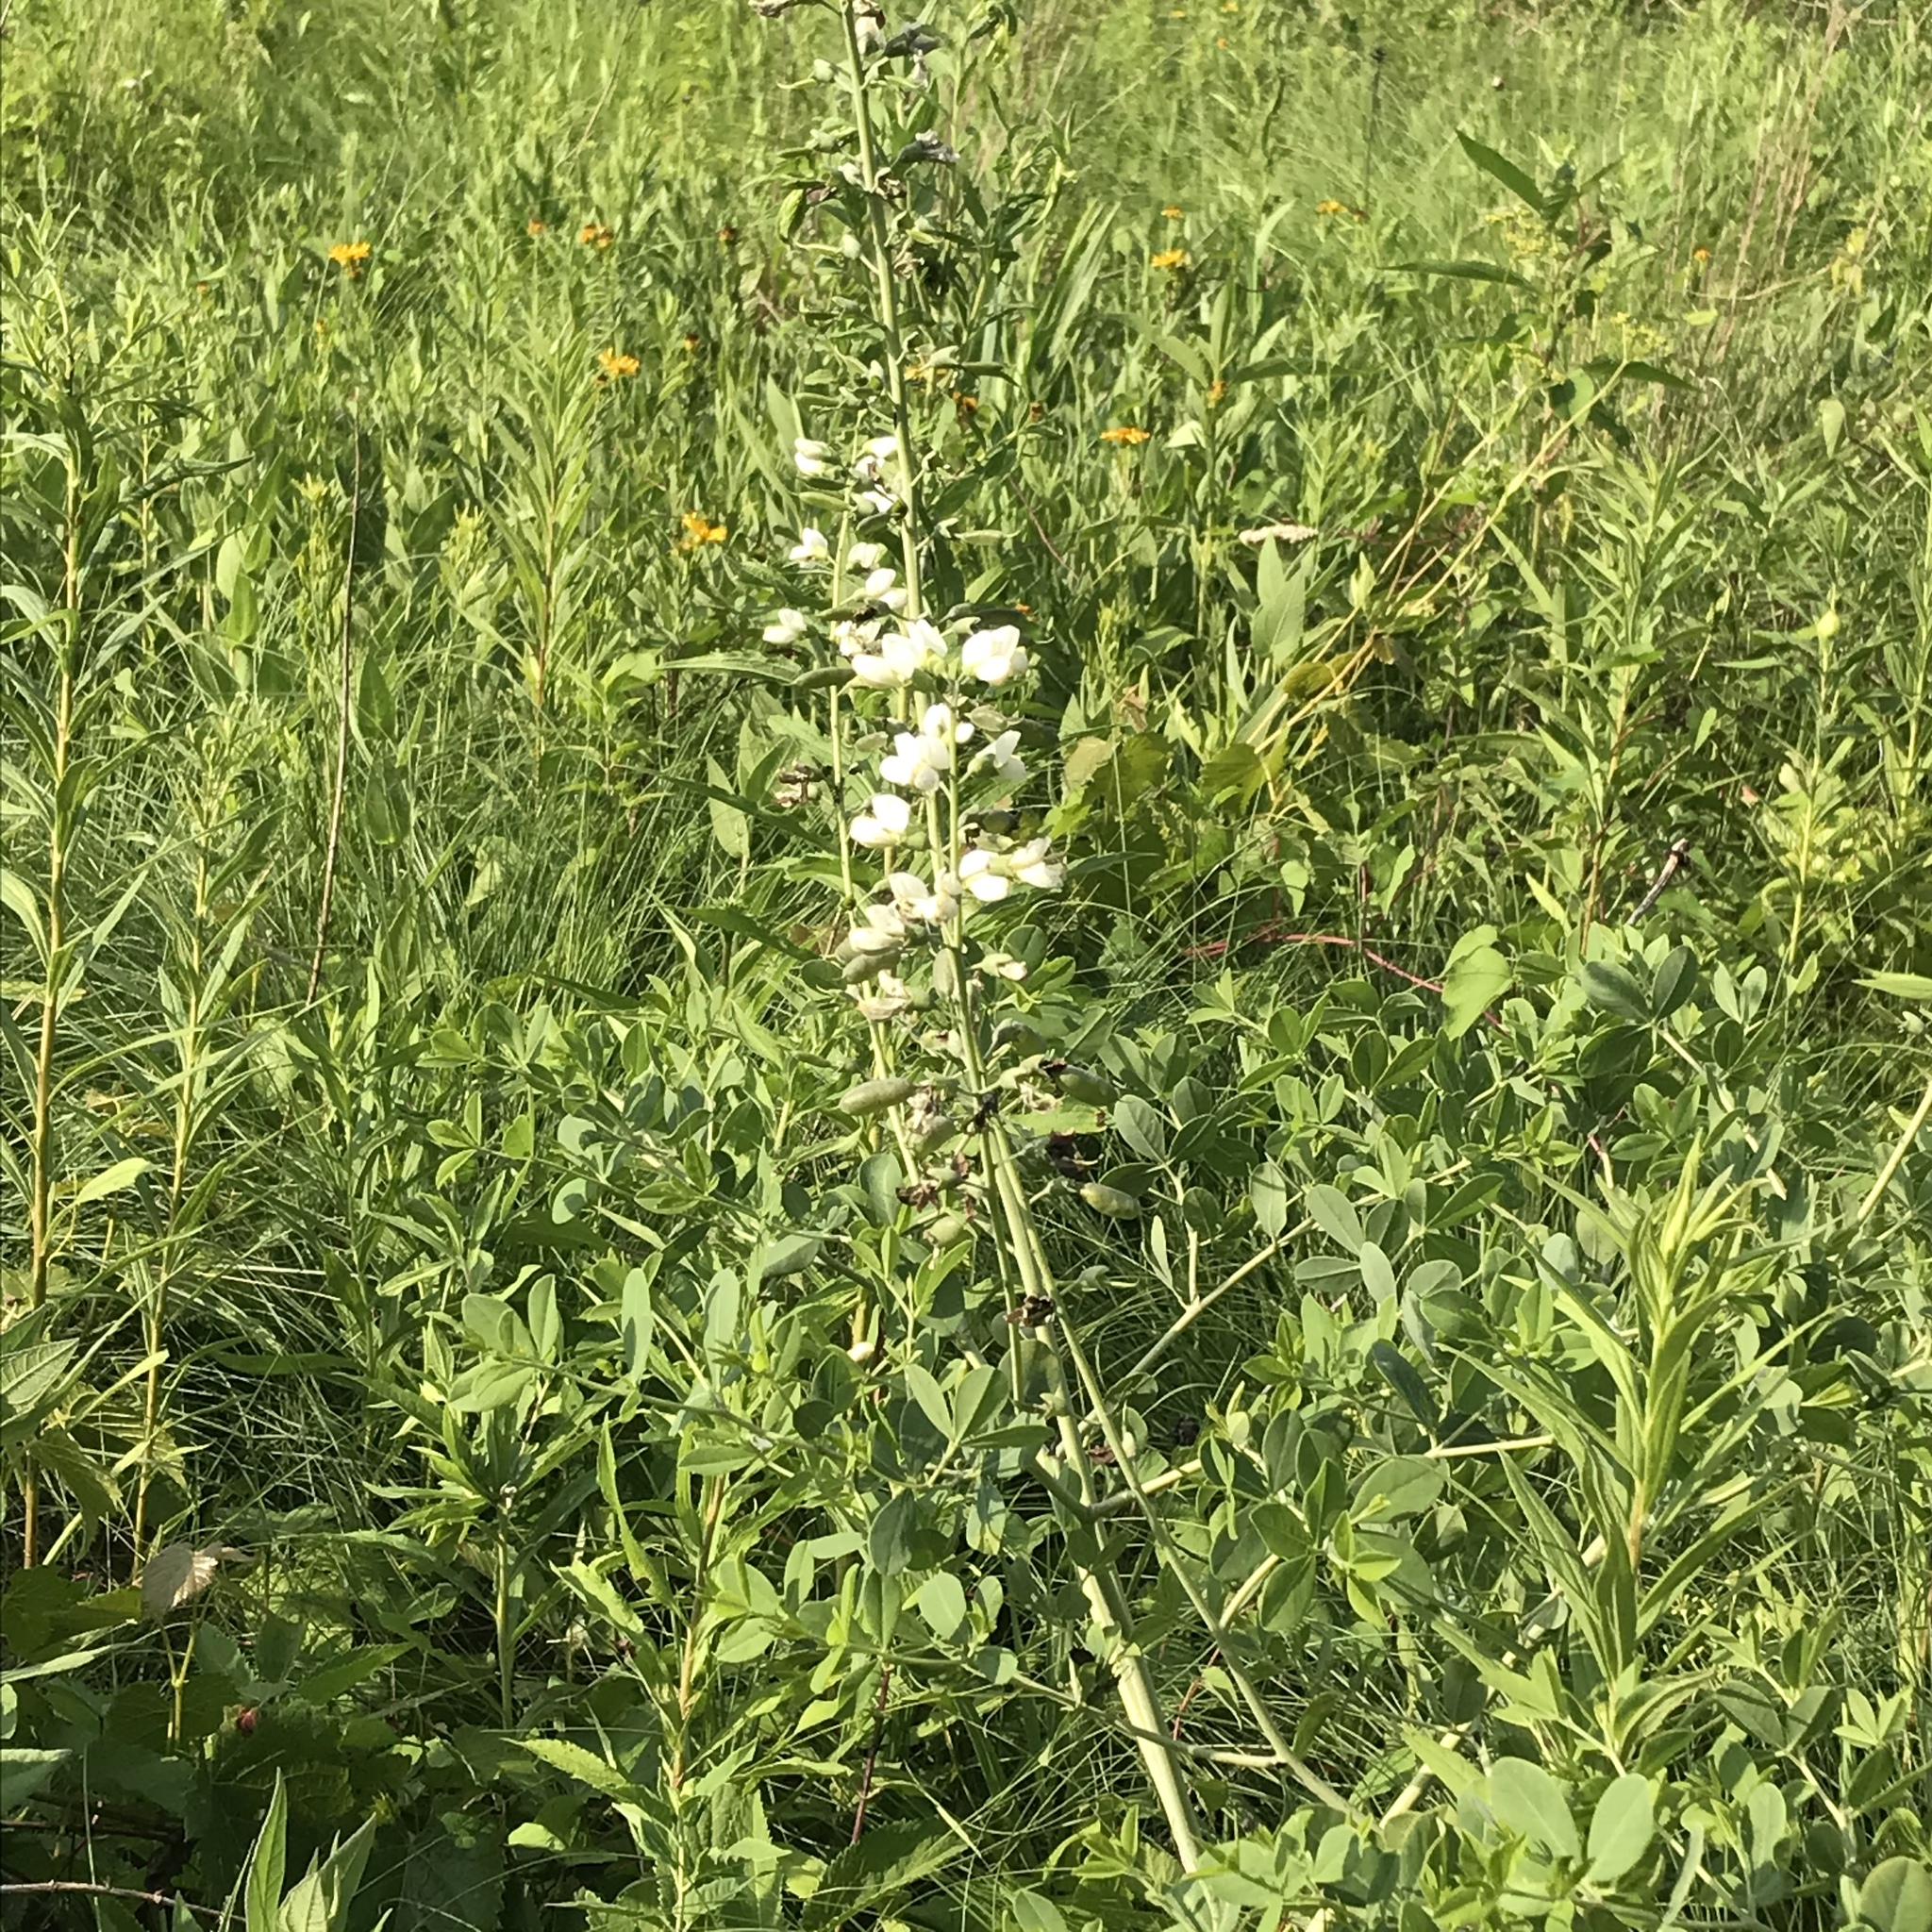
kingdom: Plantae
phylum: Tracheophyta
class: Magnoliopsida
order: Fabales
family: Fabaceae
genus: Baptisia
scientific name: Baptisia alba
